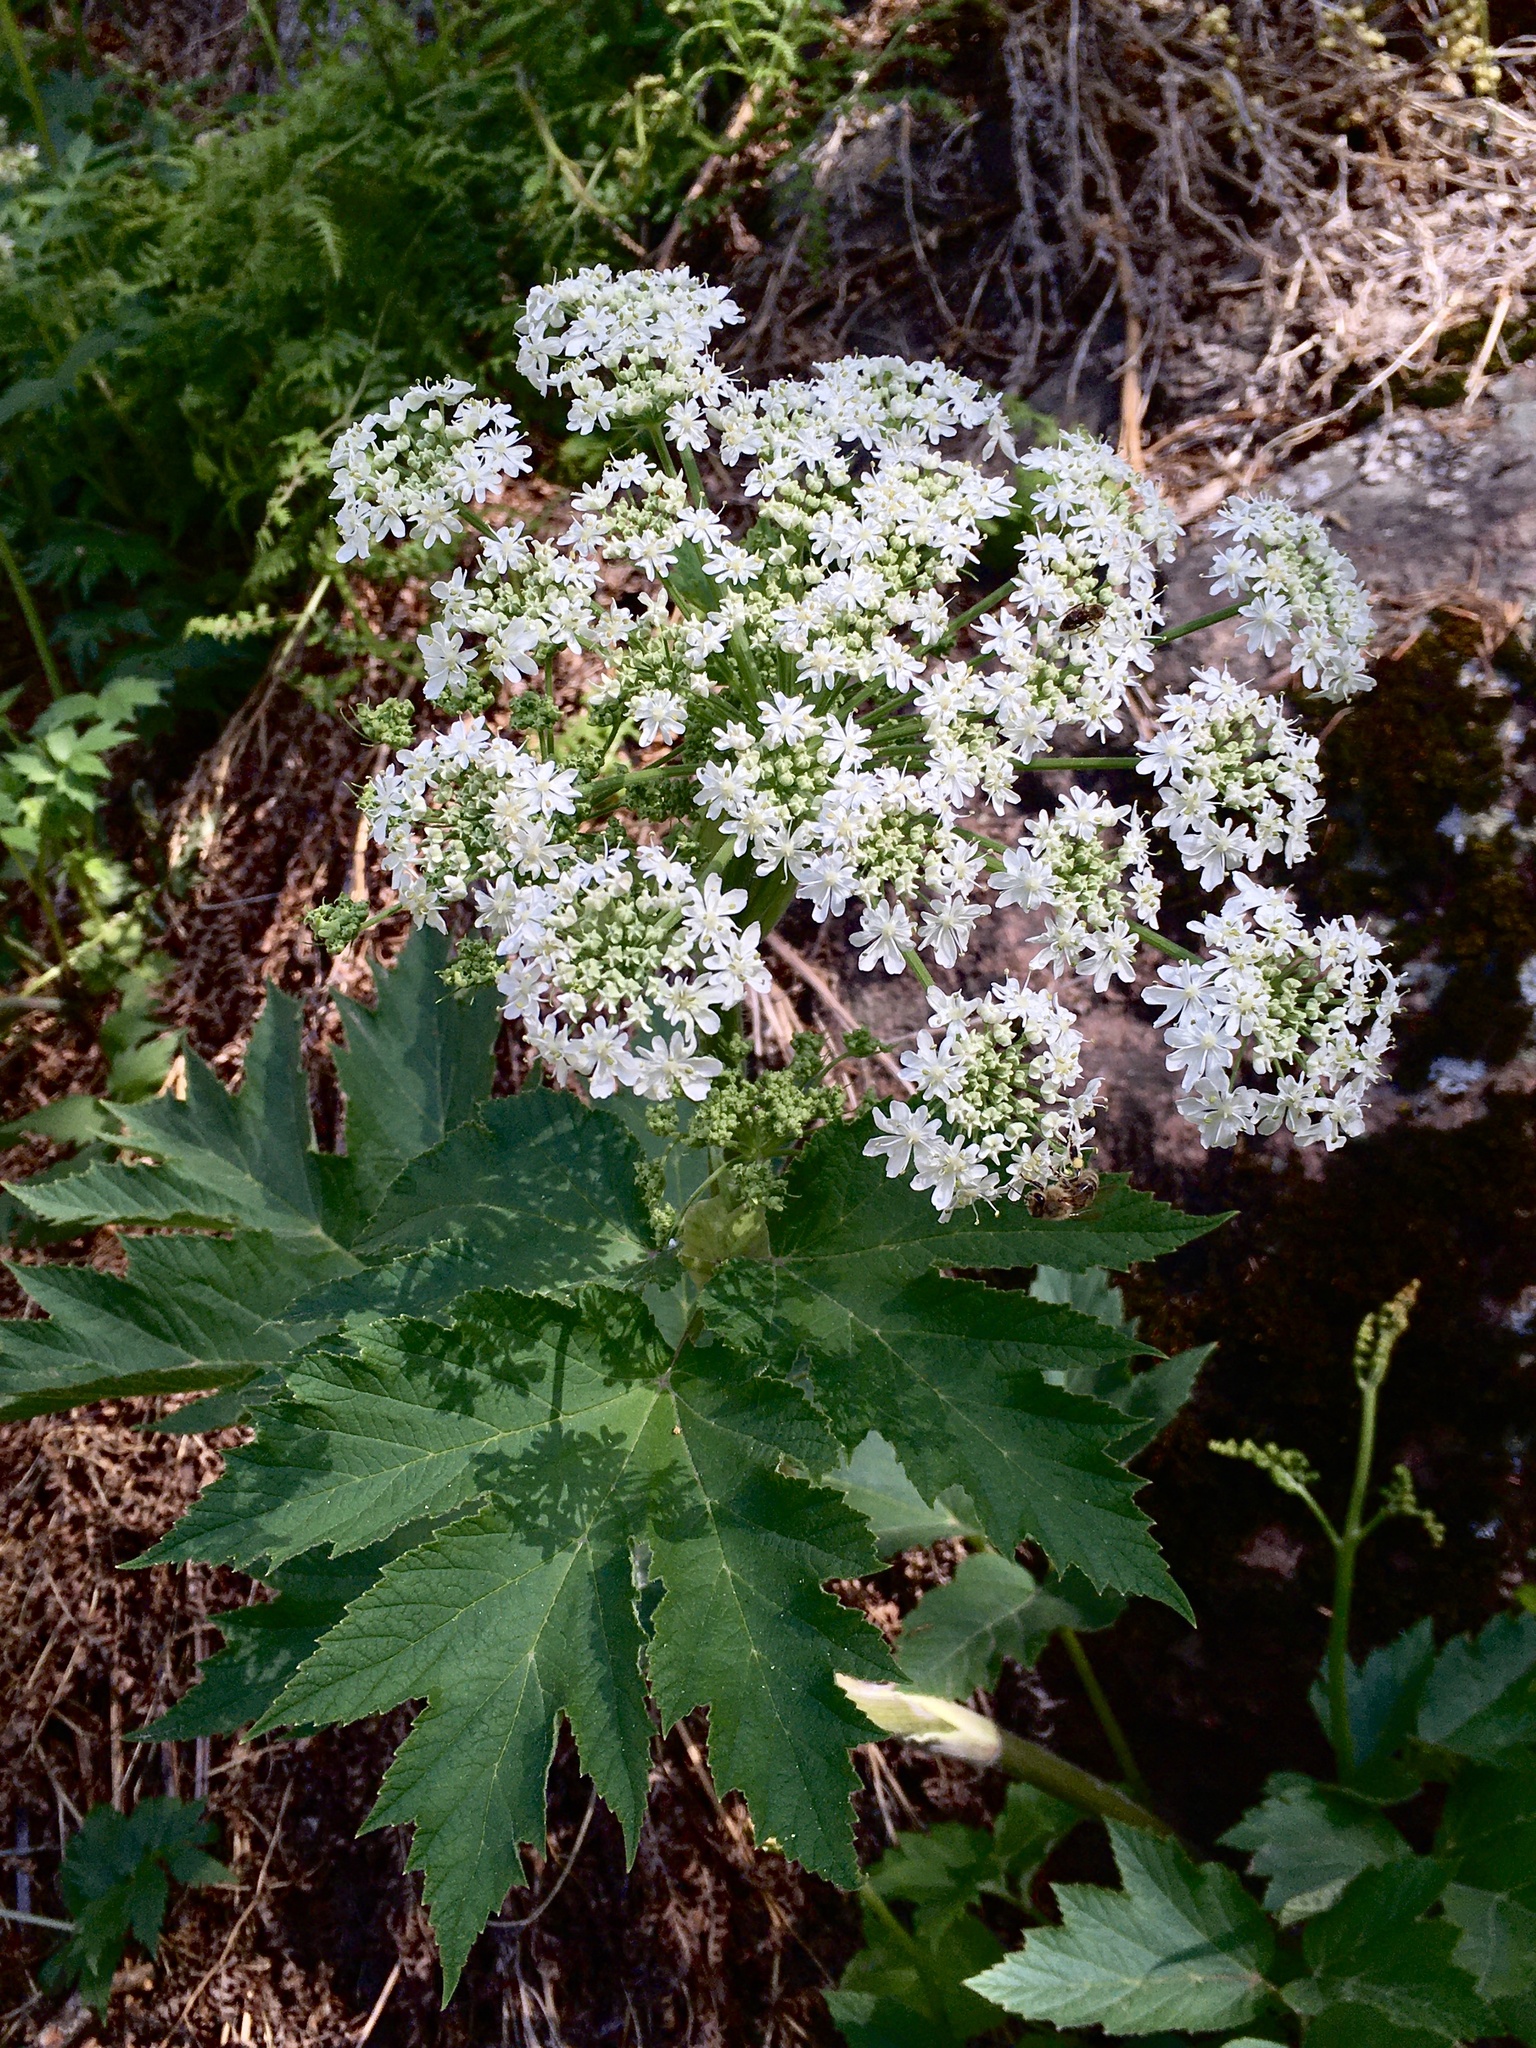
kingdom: Plantae
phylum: Tracheophyta
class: Magnoliopsida
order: Apiales
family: Apiaceae
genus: Heracleum
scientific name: Heracleum maximum
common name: American cow parsnip
